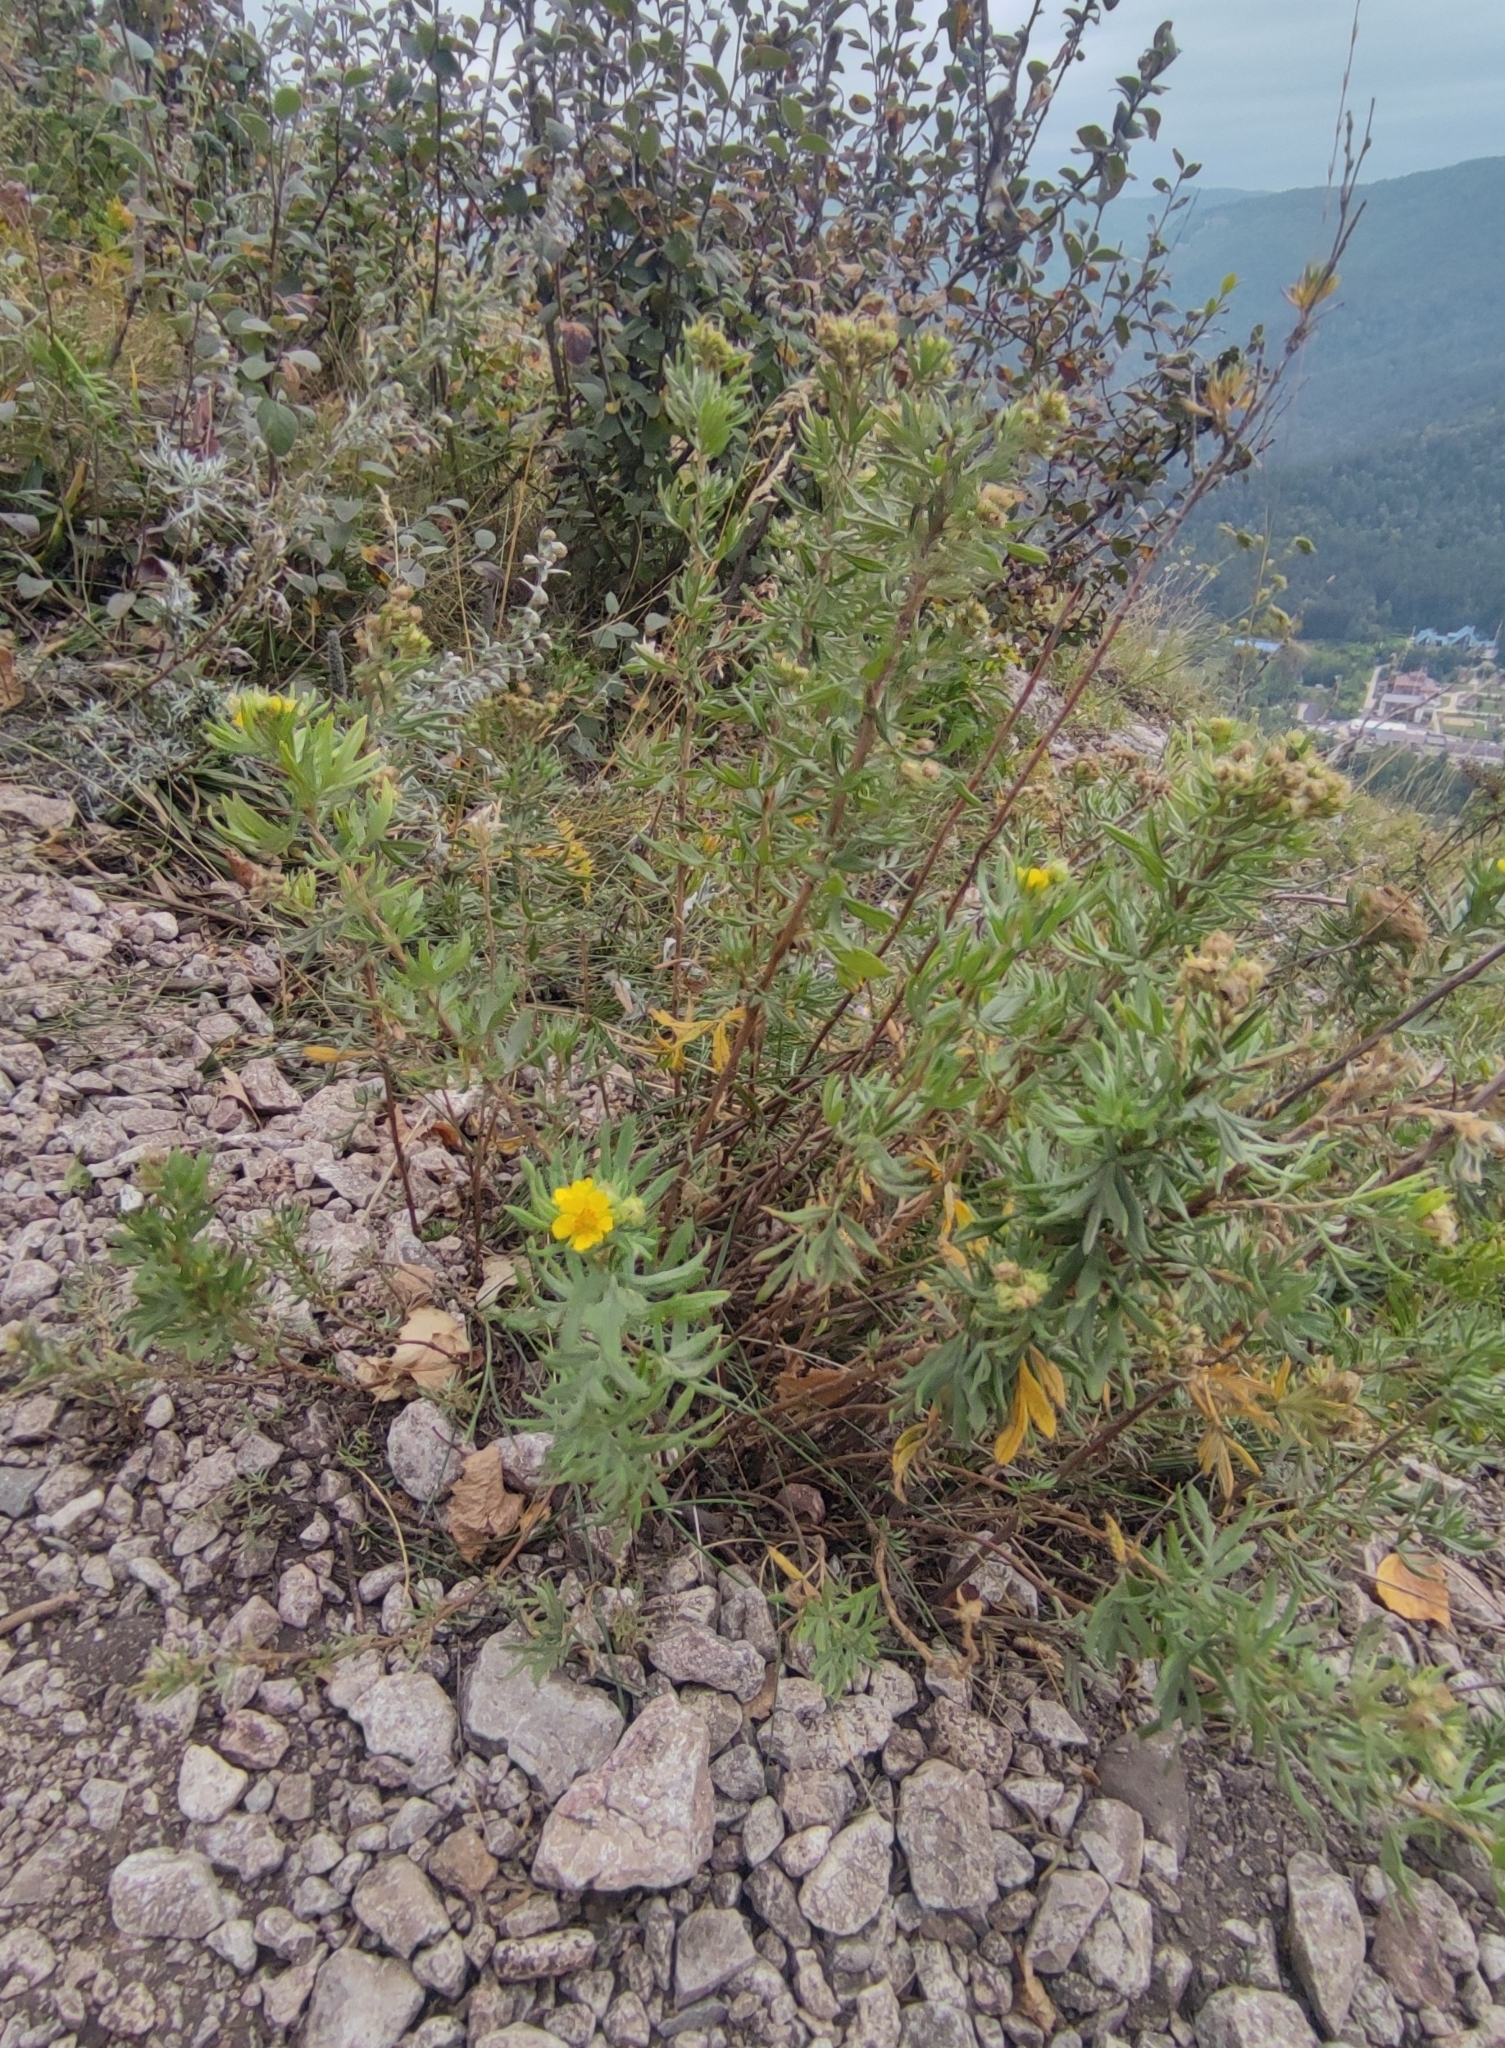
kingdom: Plantae
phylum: Tracheophyta
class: Magnoliopsida
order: Rosales
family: Rosaceae
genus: Dasiphora
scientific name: Dasiphora fruticosa
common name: Shrubby cinquefoil
